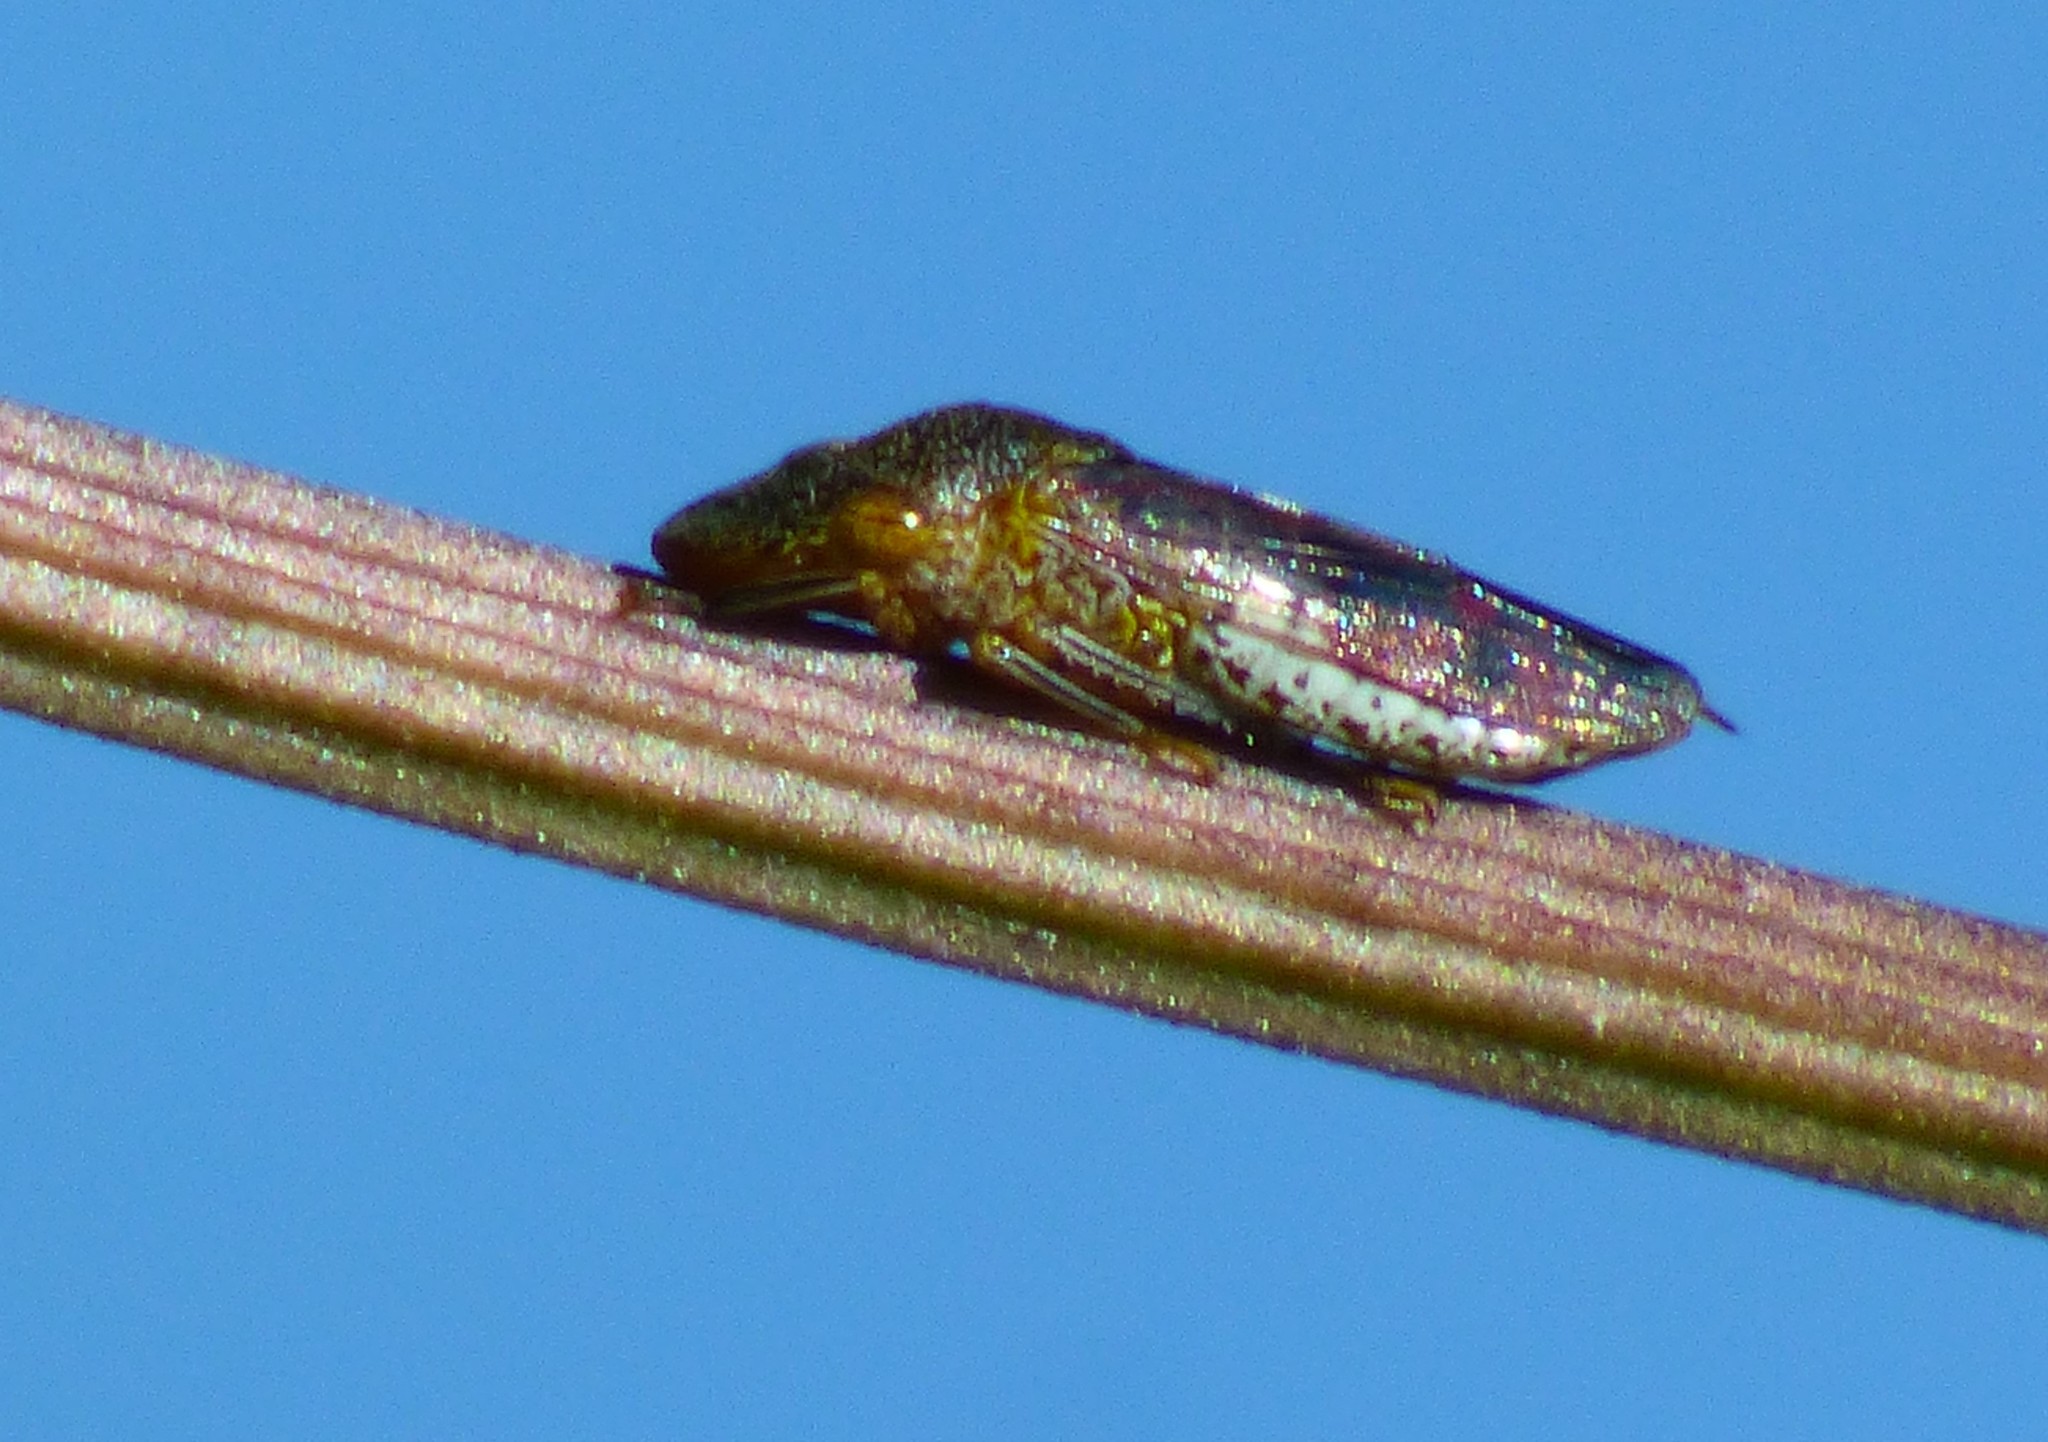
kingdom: Animalia
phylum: Arthropoda
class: Insecta
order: Hemiptera
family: Cicadellidae
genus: Homalodisca
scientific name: Homalodisca vitripennis
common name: Glassy-winged sharpshooter
